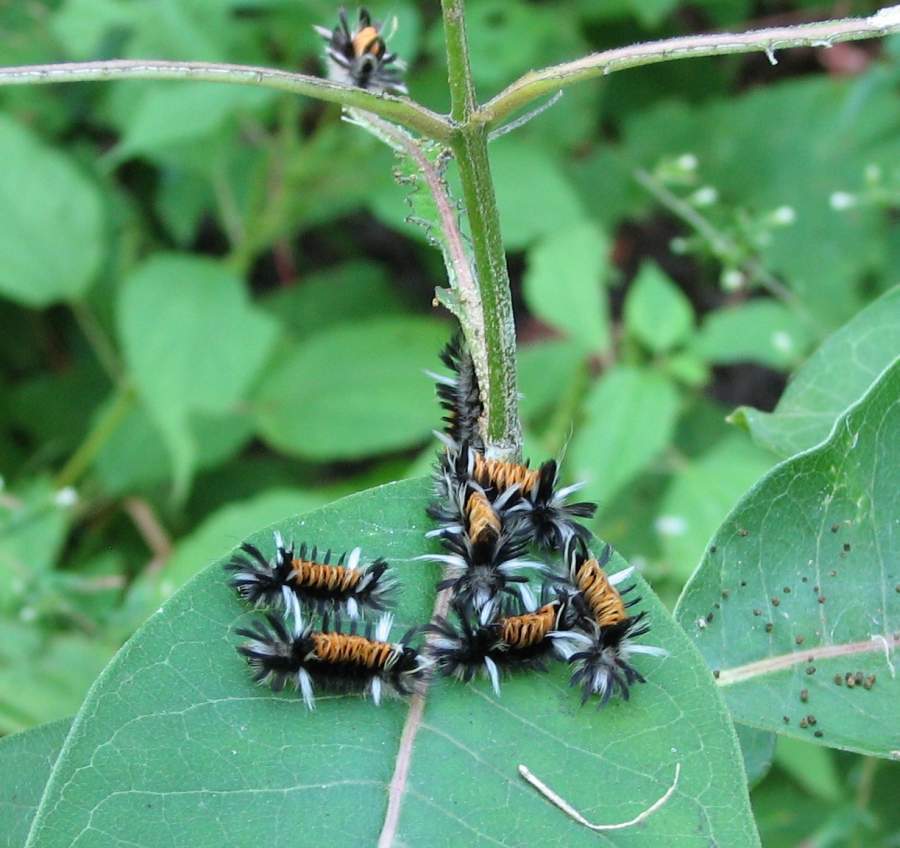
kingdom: Animalia
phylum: Arthropoda
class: Insecta
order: Lepidoptera
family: Erebidae
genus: Euchaetes
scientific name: Euchaetes egle
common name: Milkweed tussock moth
